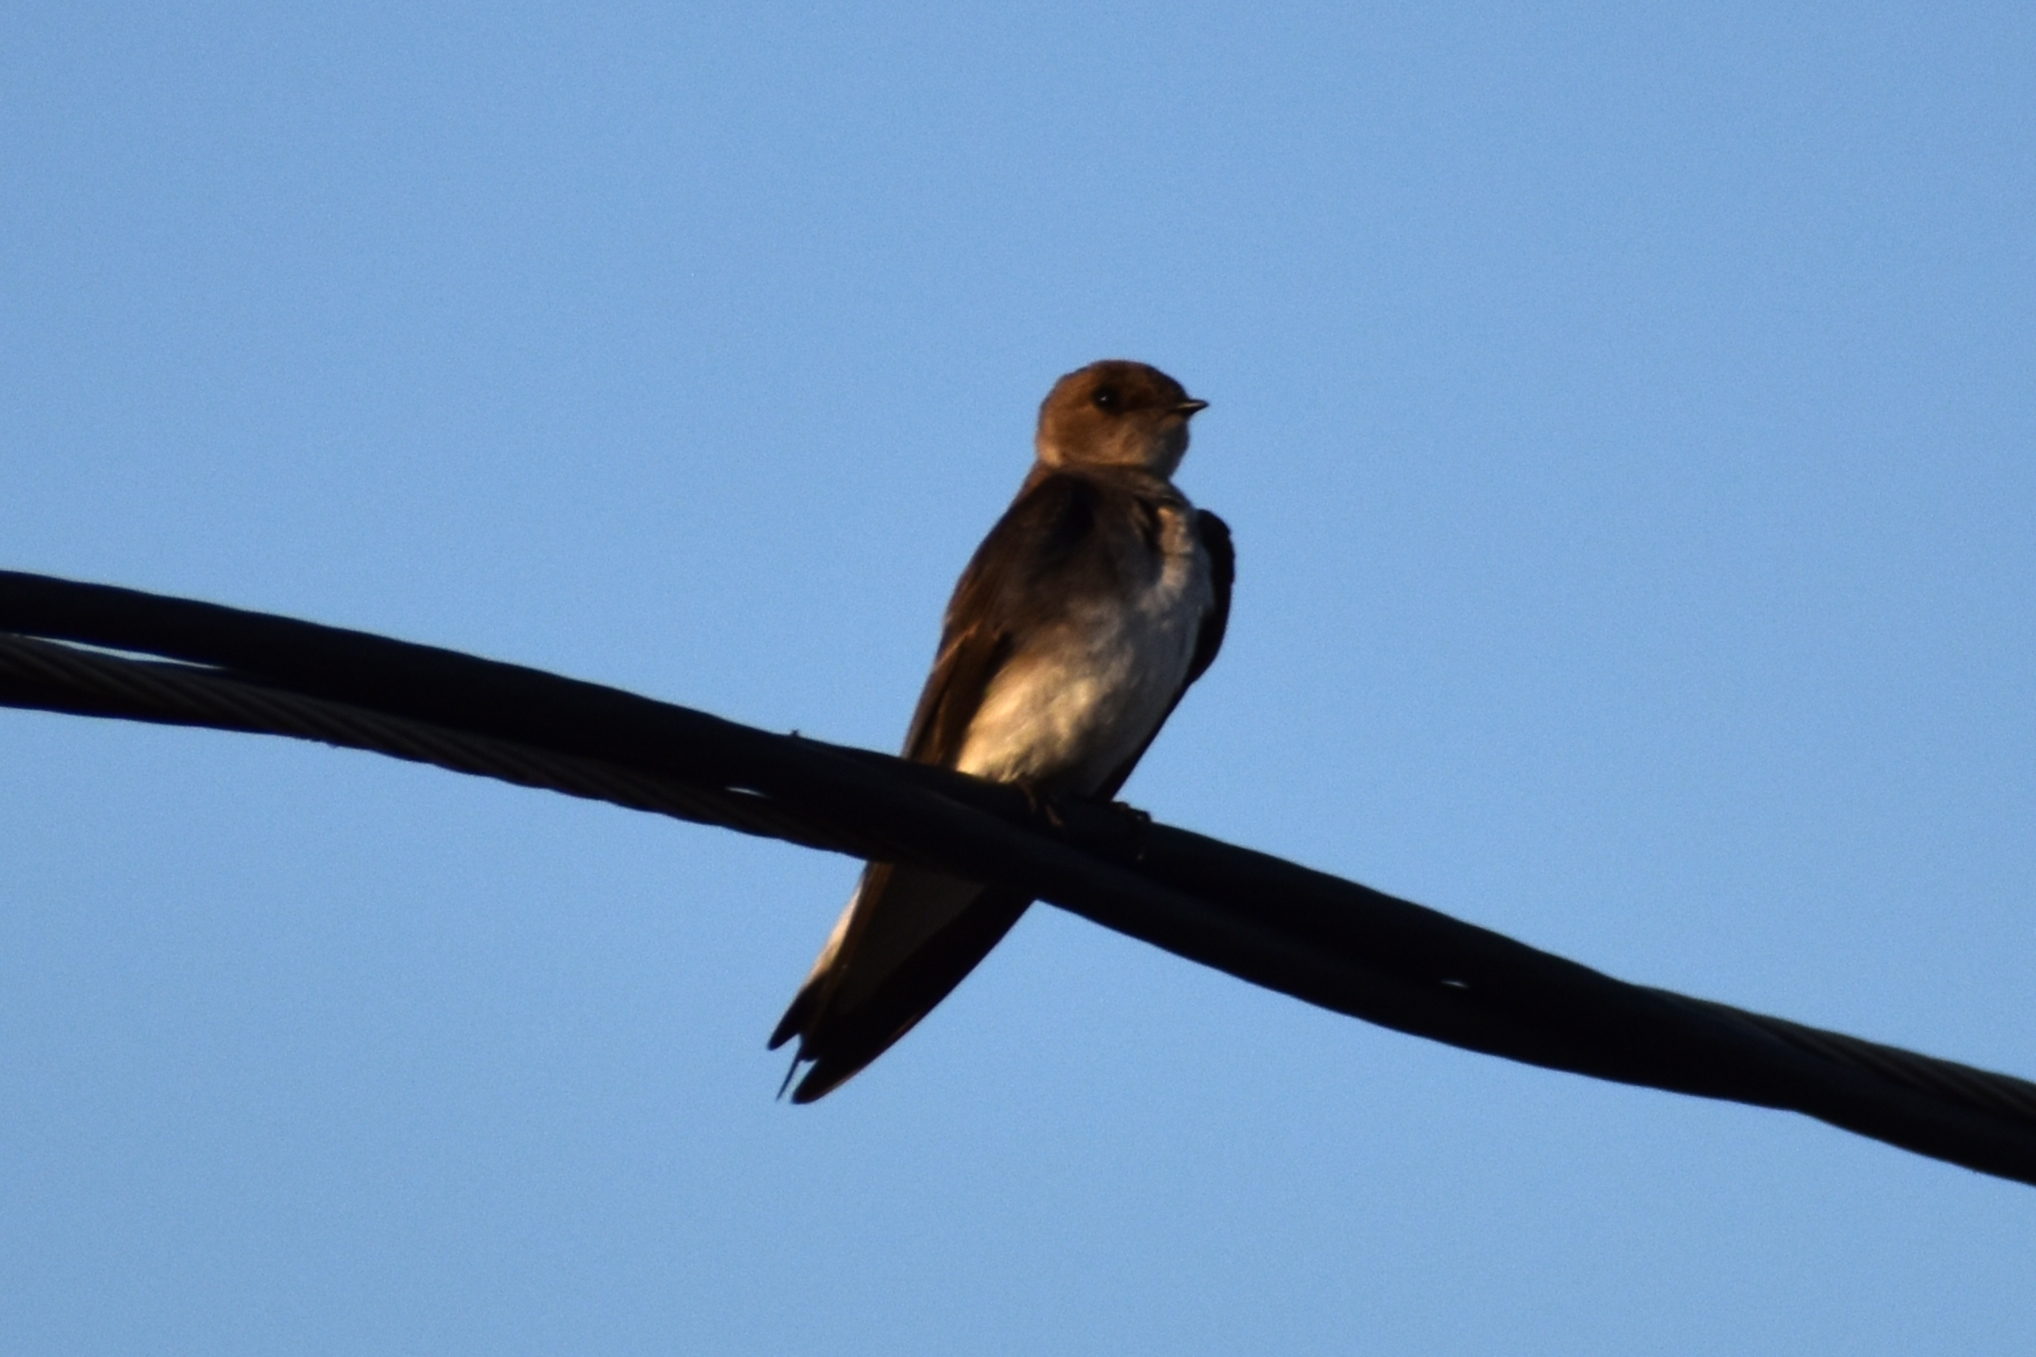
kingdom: Animalia
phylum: Chordata
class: Aves
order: Passeriformes
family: Hirundinidae
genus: Stelgidopteryx
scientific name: Stelgidopteryx serripennis
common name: Northern rough-winged swallow
